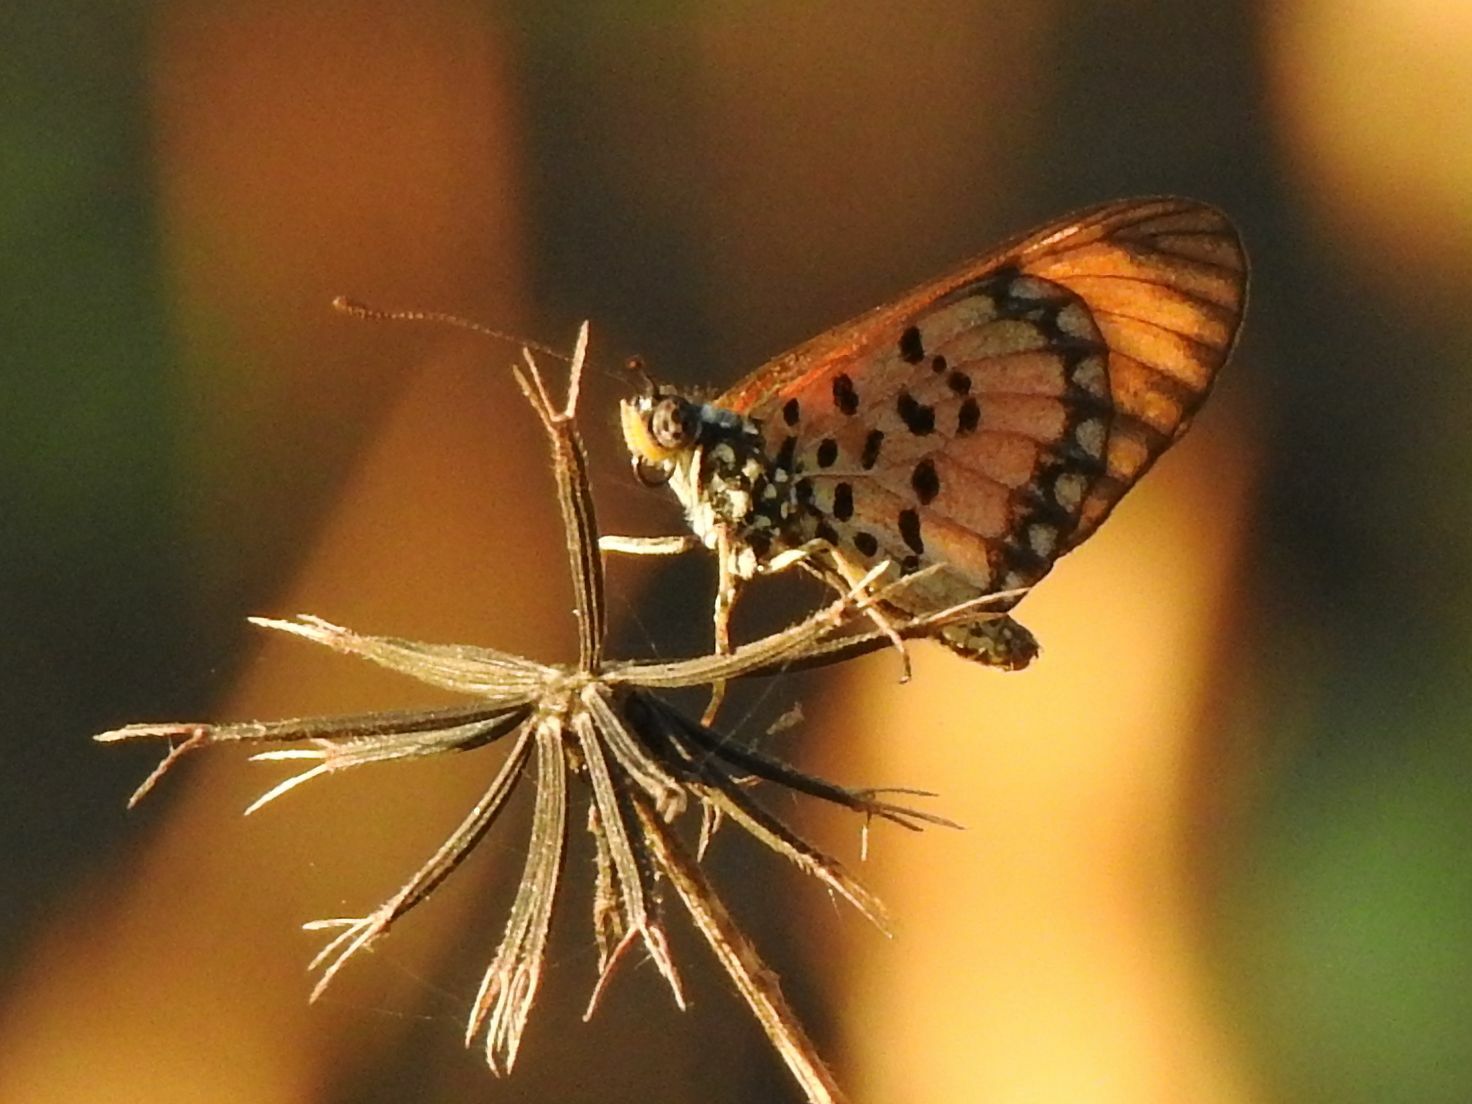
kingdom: Animalia
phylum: Arthropoda
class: Insecta
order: Lepidoptera
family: Nymphalidae
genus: Acraea
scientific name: Acraea Telchinia serena
